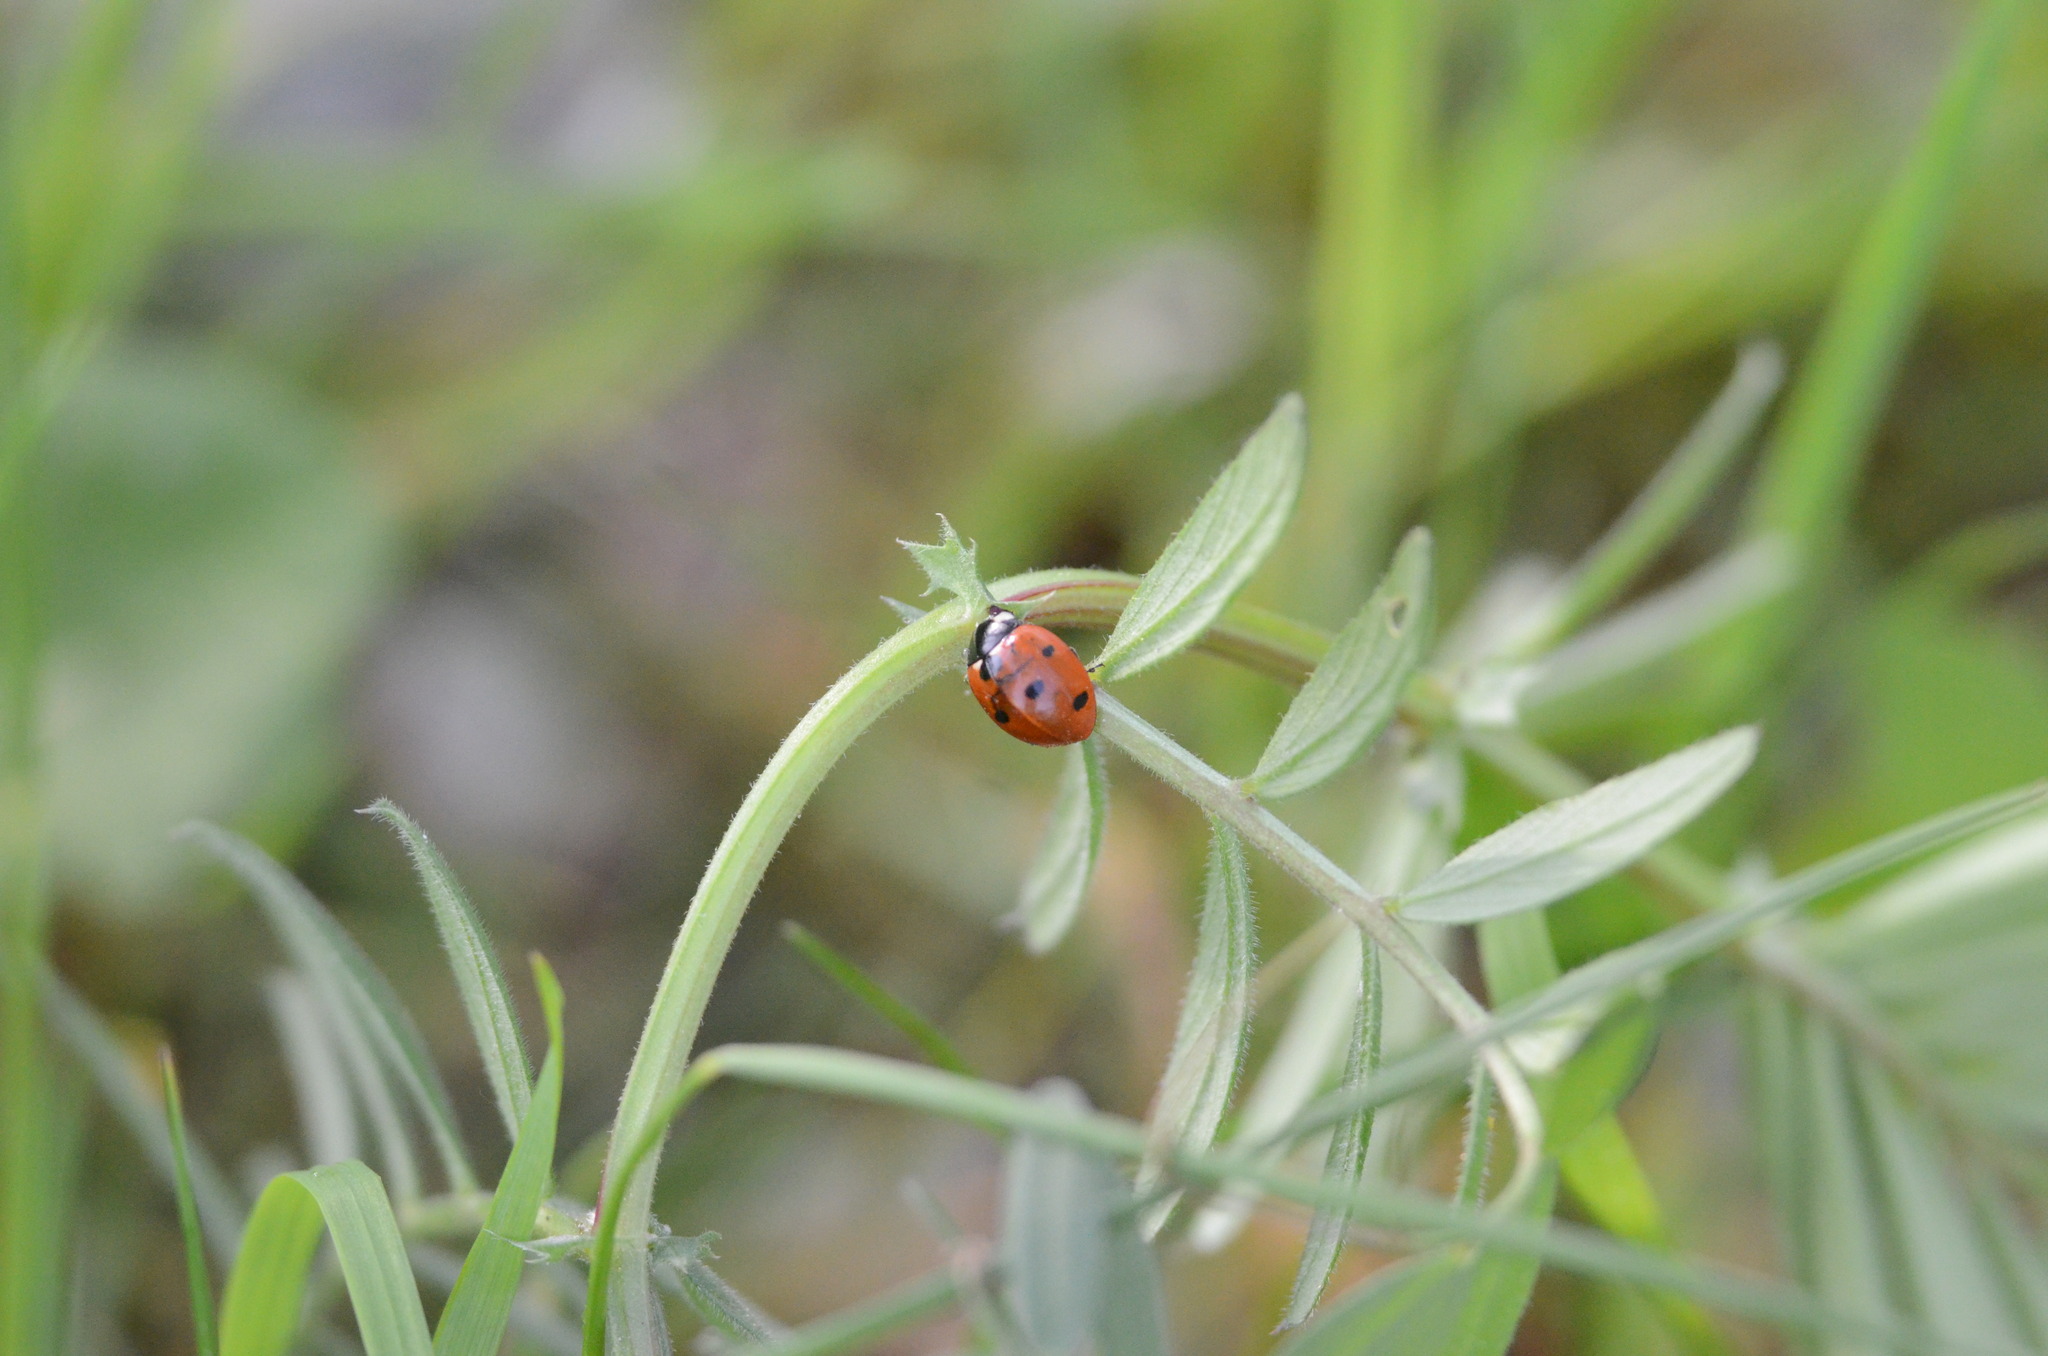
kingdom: Animalia
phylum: Arthropoda
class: Insecta
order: Coleoptera
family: Coccinellidae
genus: Coccinella
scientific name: Coccinella septempunctata
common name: Sevenspotted lady beetle
